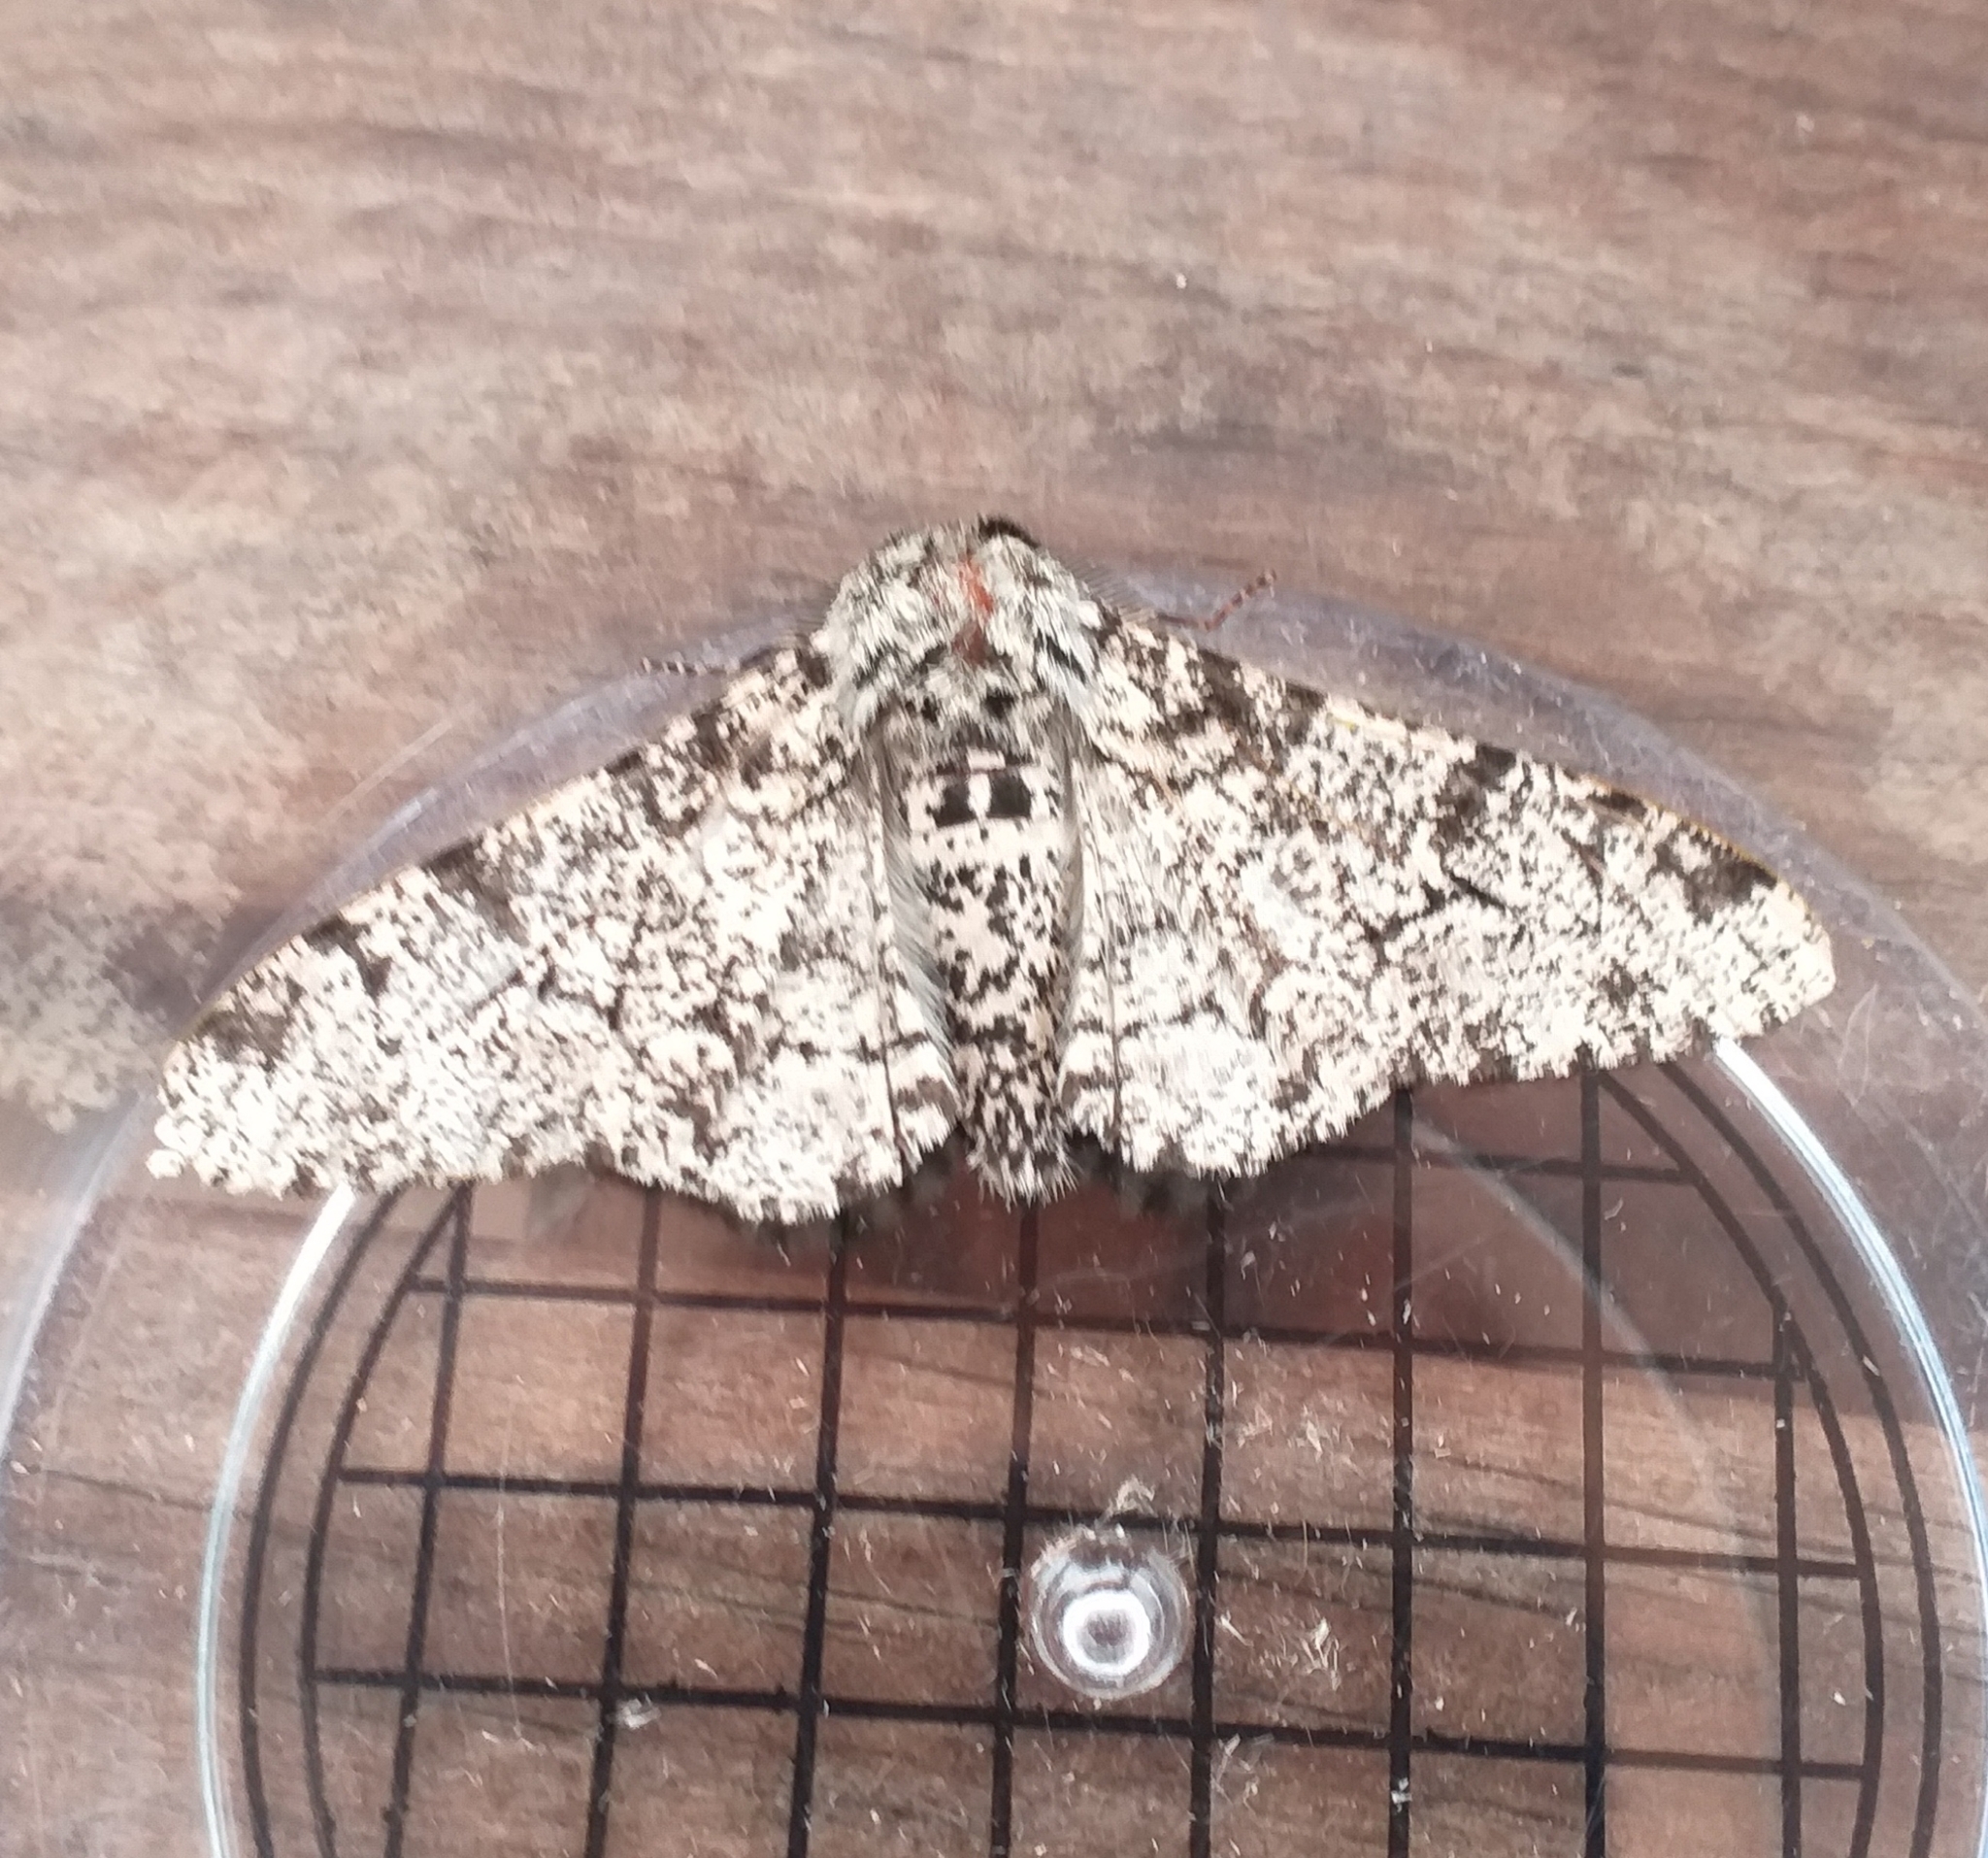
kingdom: Animalia
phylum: Arthropoda
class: Insecta
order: Lepidoptera
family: Geometridae
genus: Biston
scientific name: Biston betularia
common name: Peppered moth
